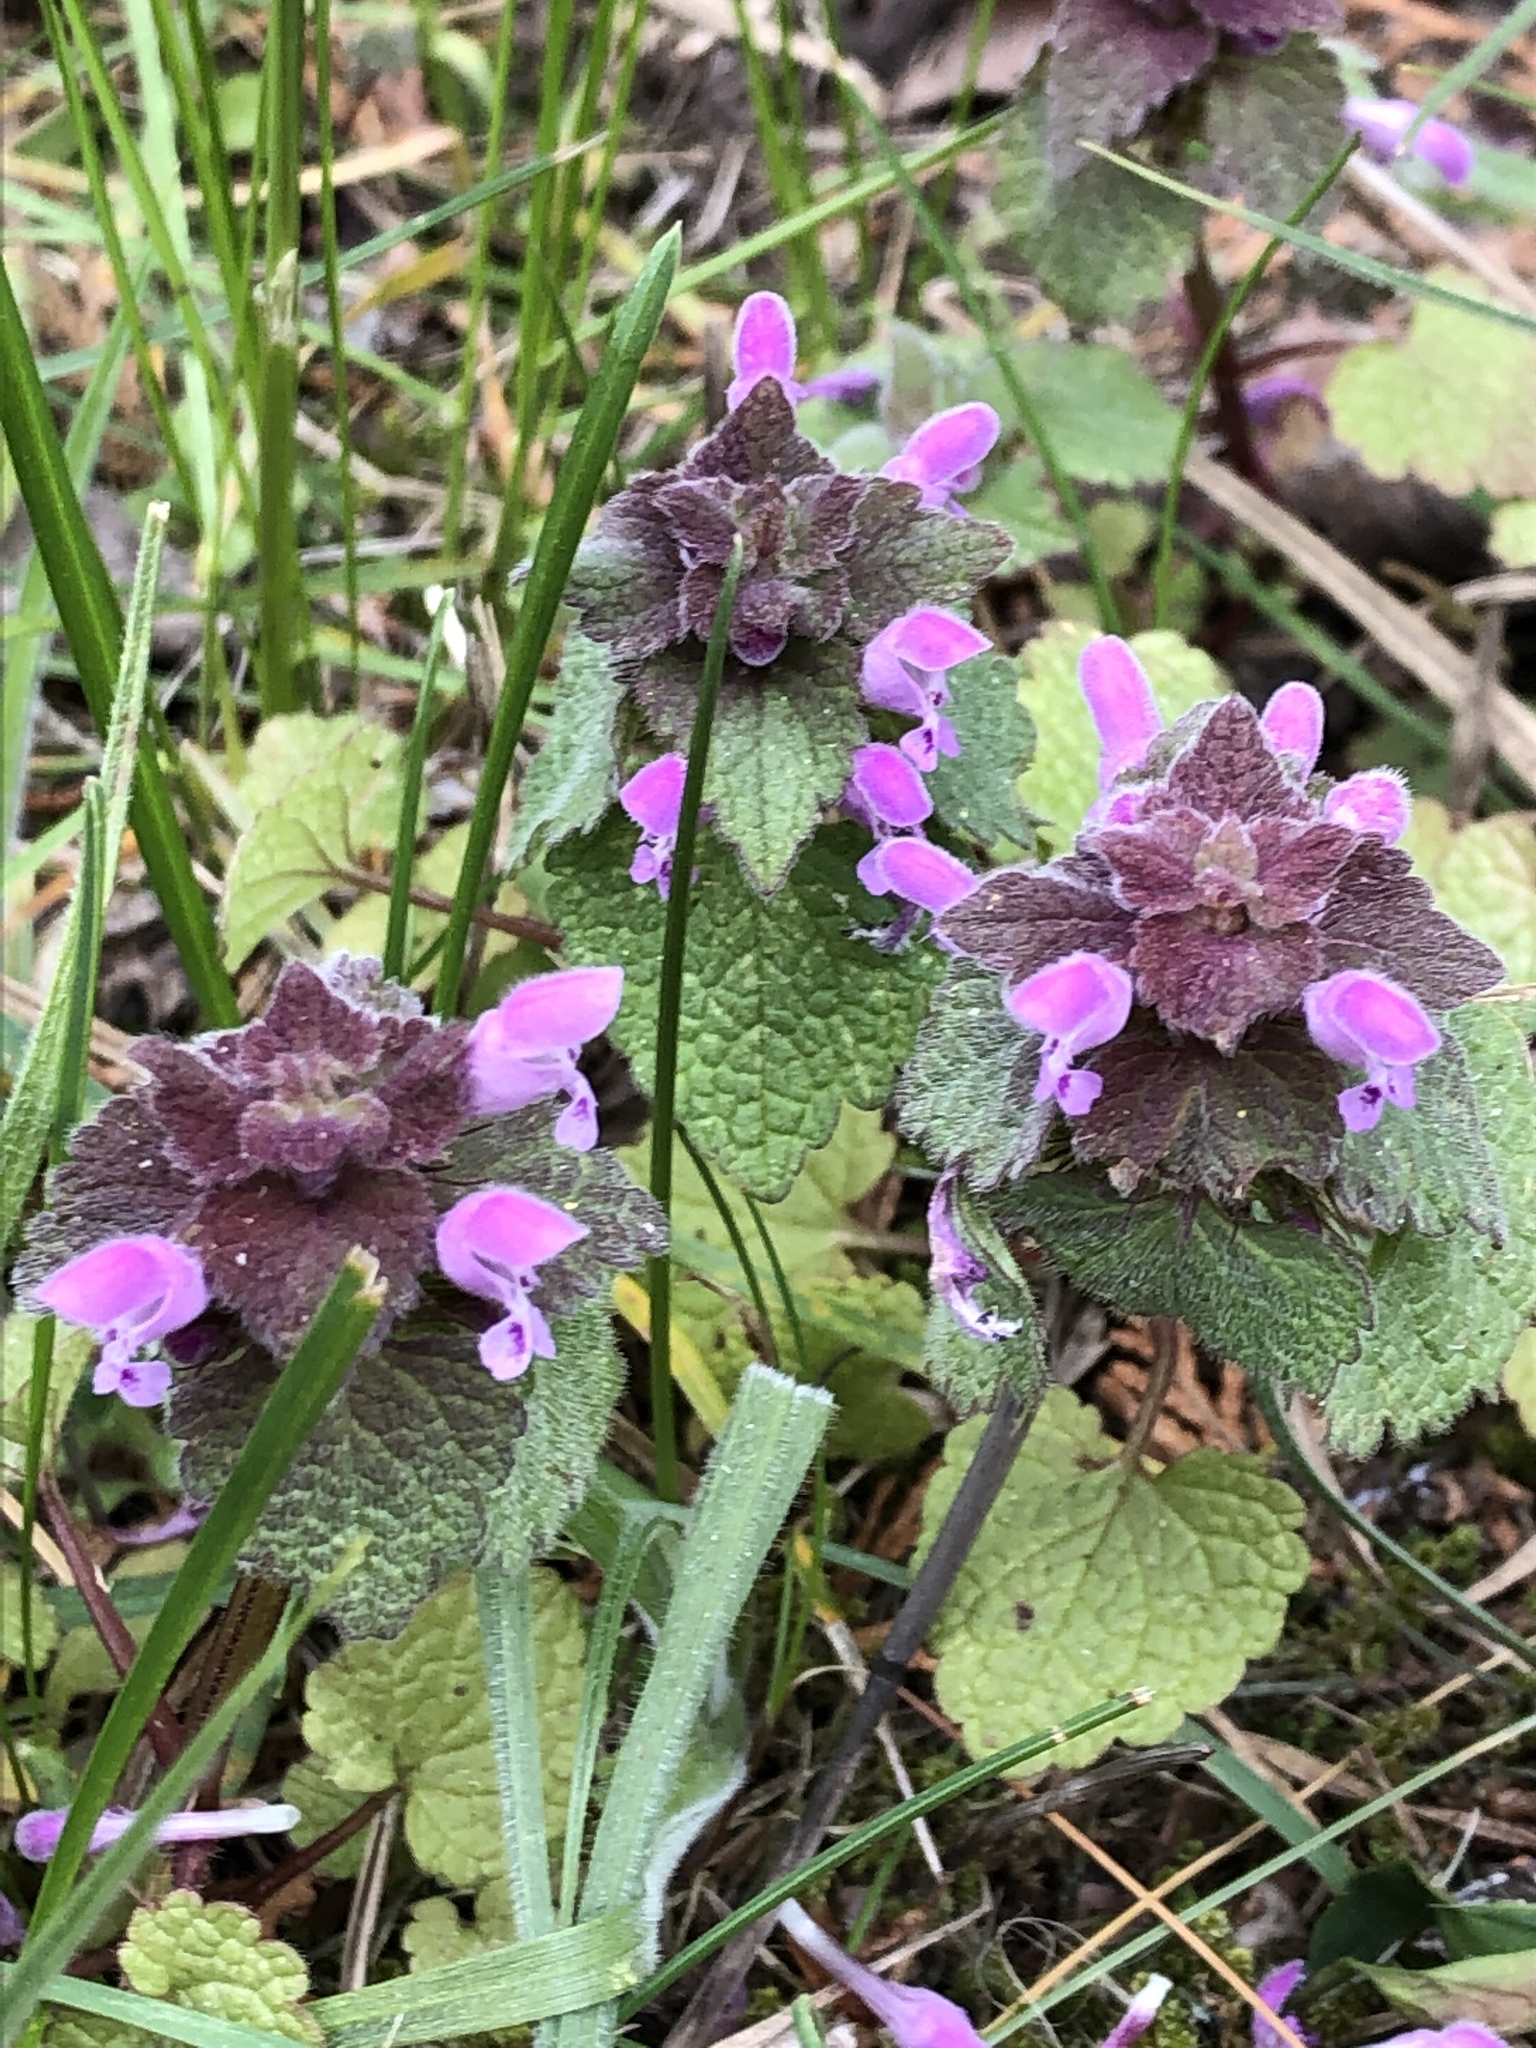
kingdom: Plantae
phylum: Tracheophyta
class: Magnoliopsida
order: Lamiales
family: Lamiaceae
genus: Lamium
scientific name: Lamium purpureum
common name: Red dead-nettle
